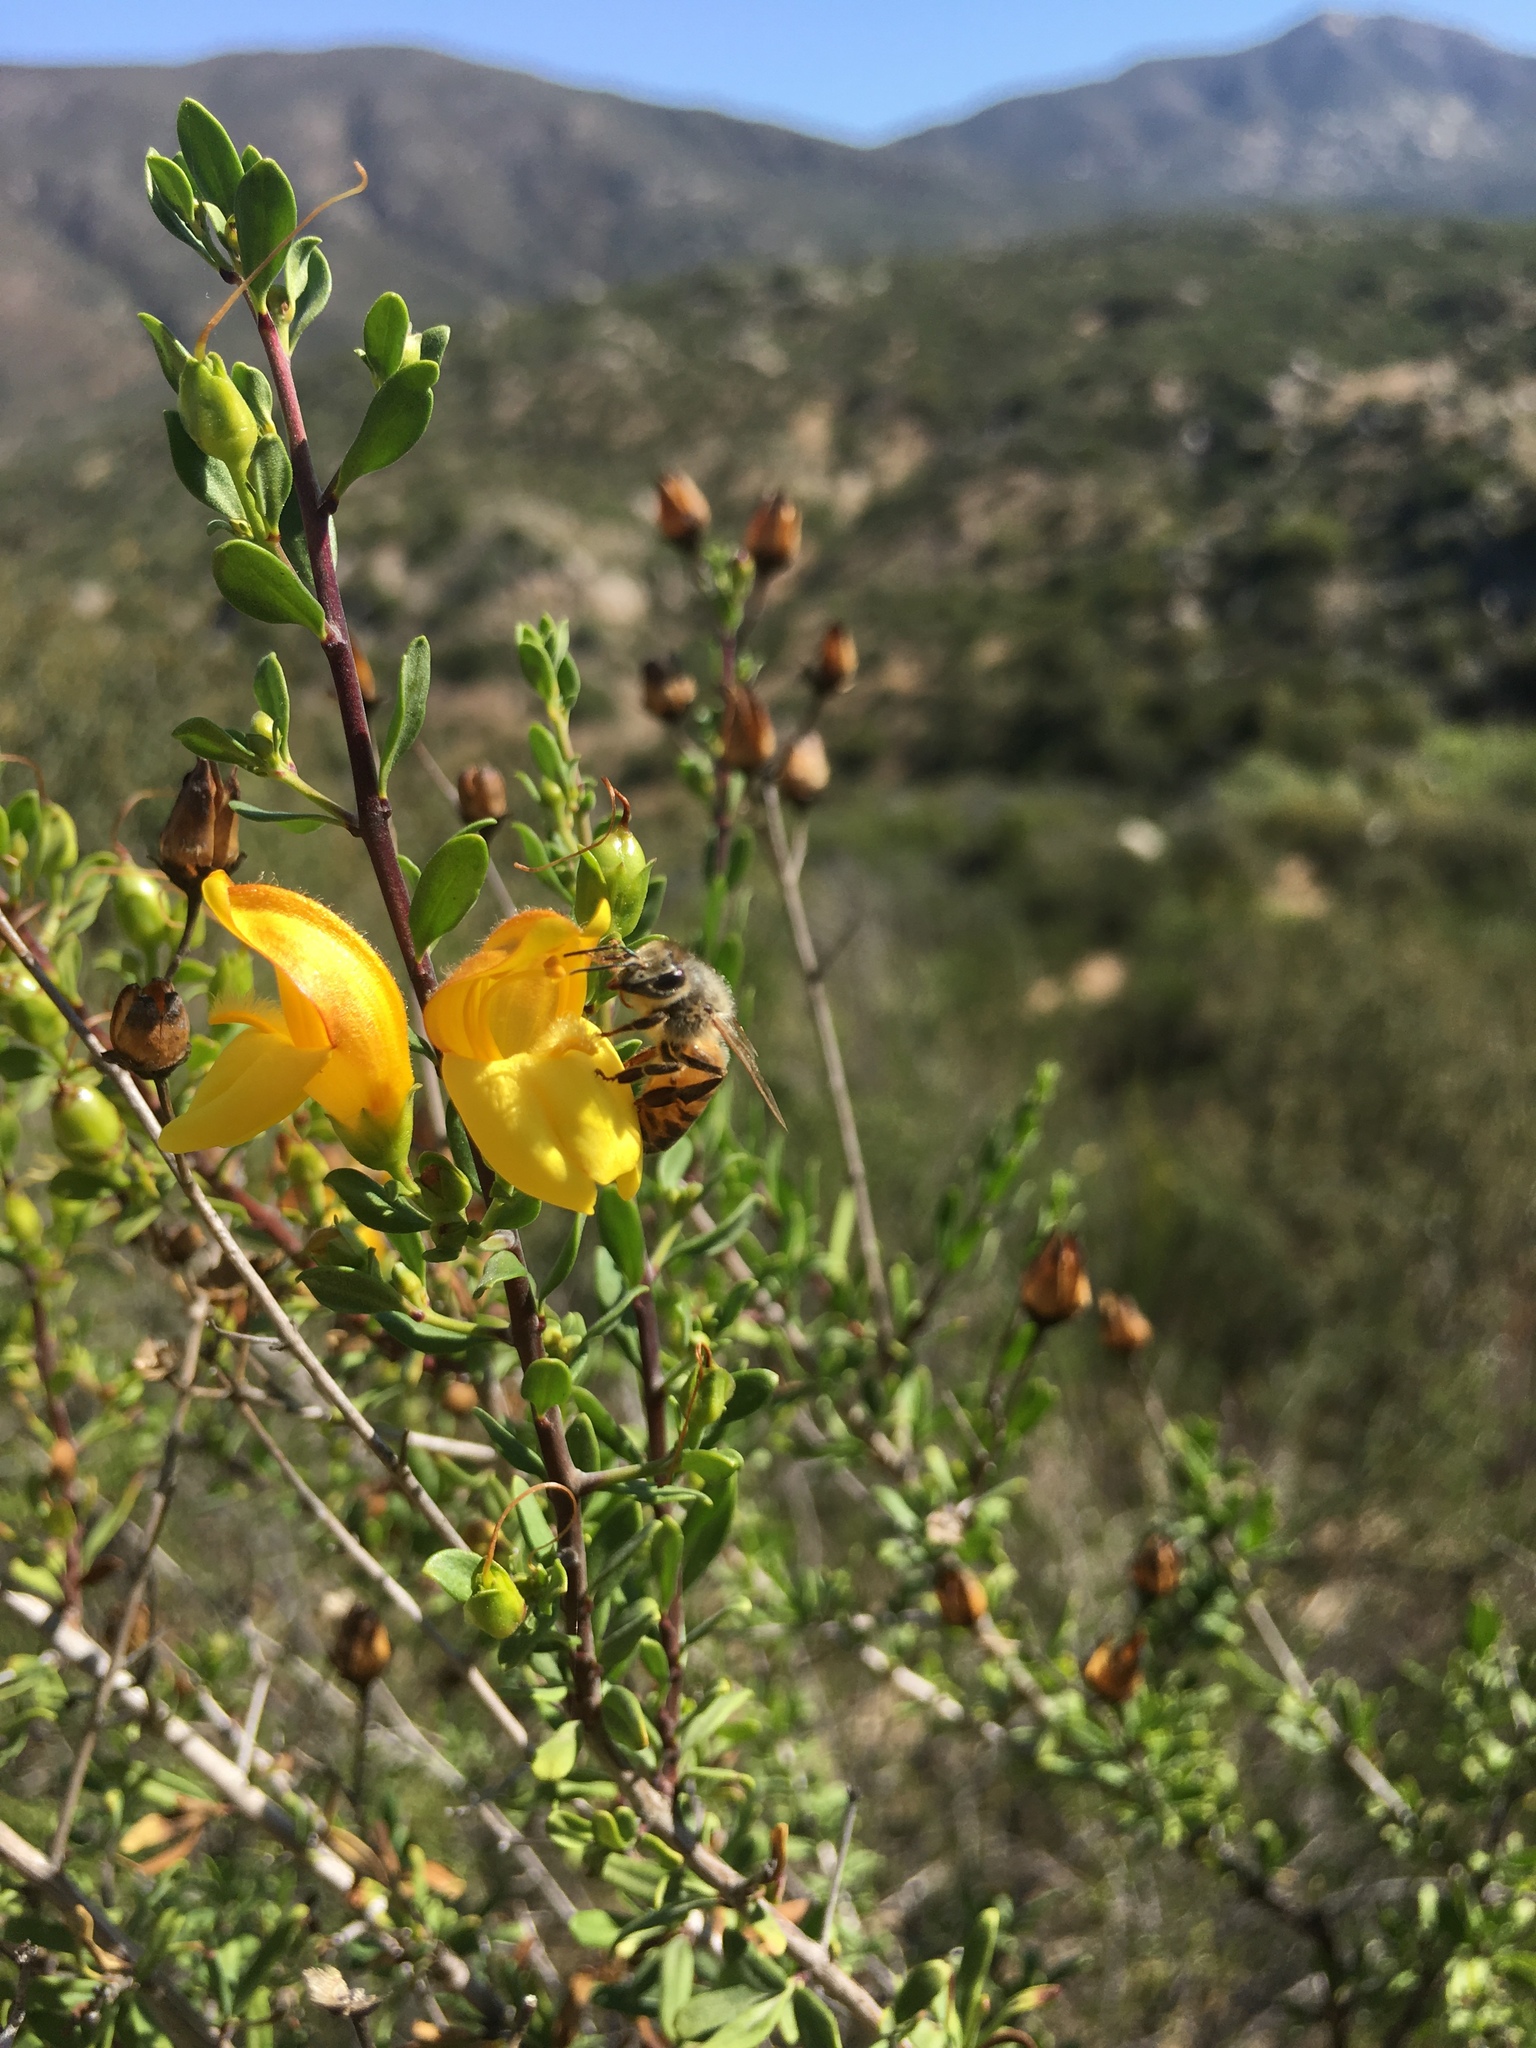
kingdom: Plantae
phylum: Tracheophyta
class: Magnoliopsida
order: Lamiales
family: Plantaginaceae
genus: Keckiella
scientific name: Keckiella antirrhinoides
